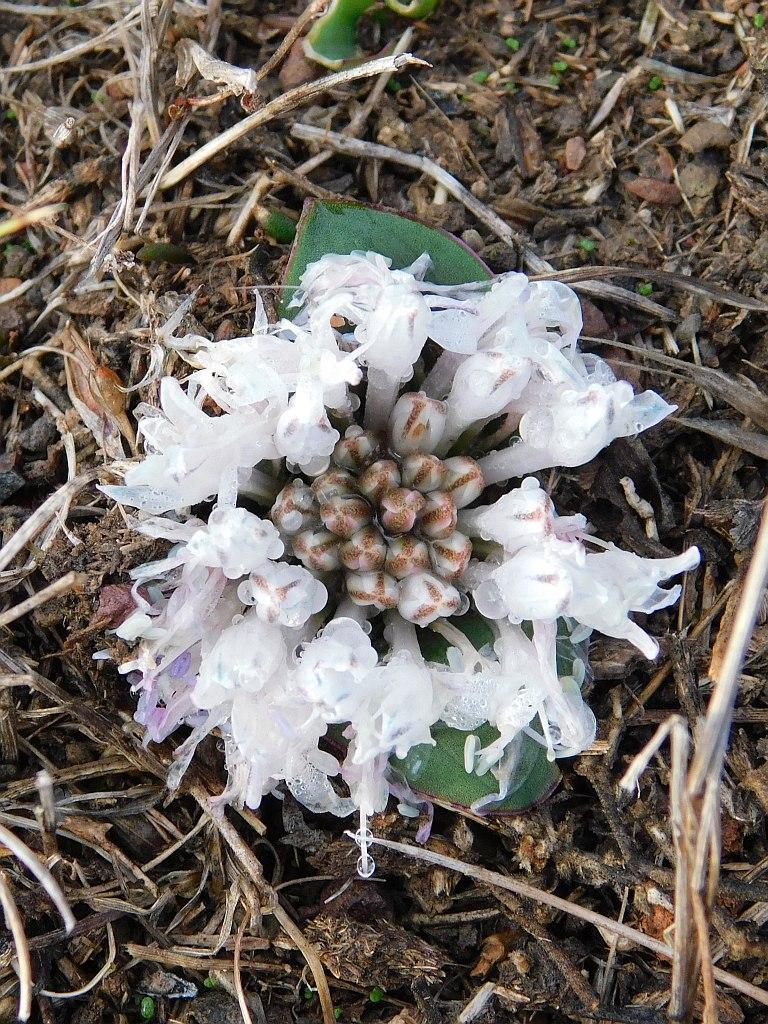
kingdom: Plantae
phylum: Tracheophyta
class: Liliopsida
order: Asparagales
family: Asparagaceae
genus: Lachenalia
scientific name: Lachenalia ensifolia
